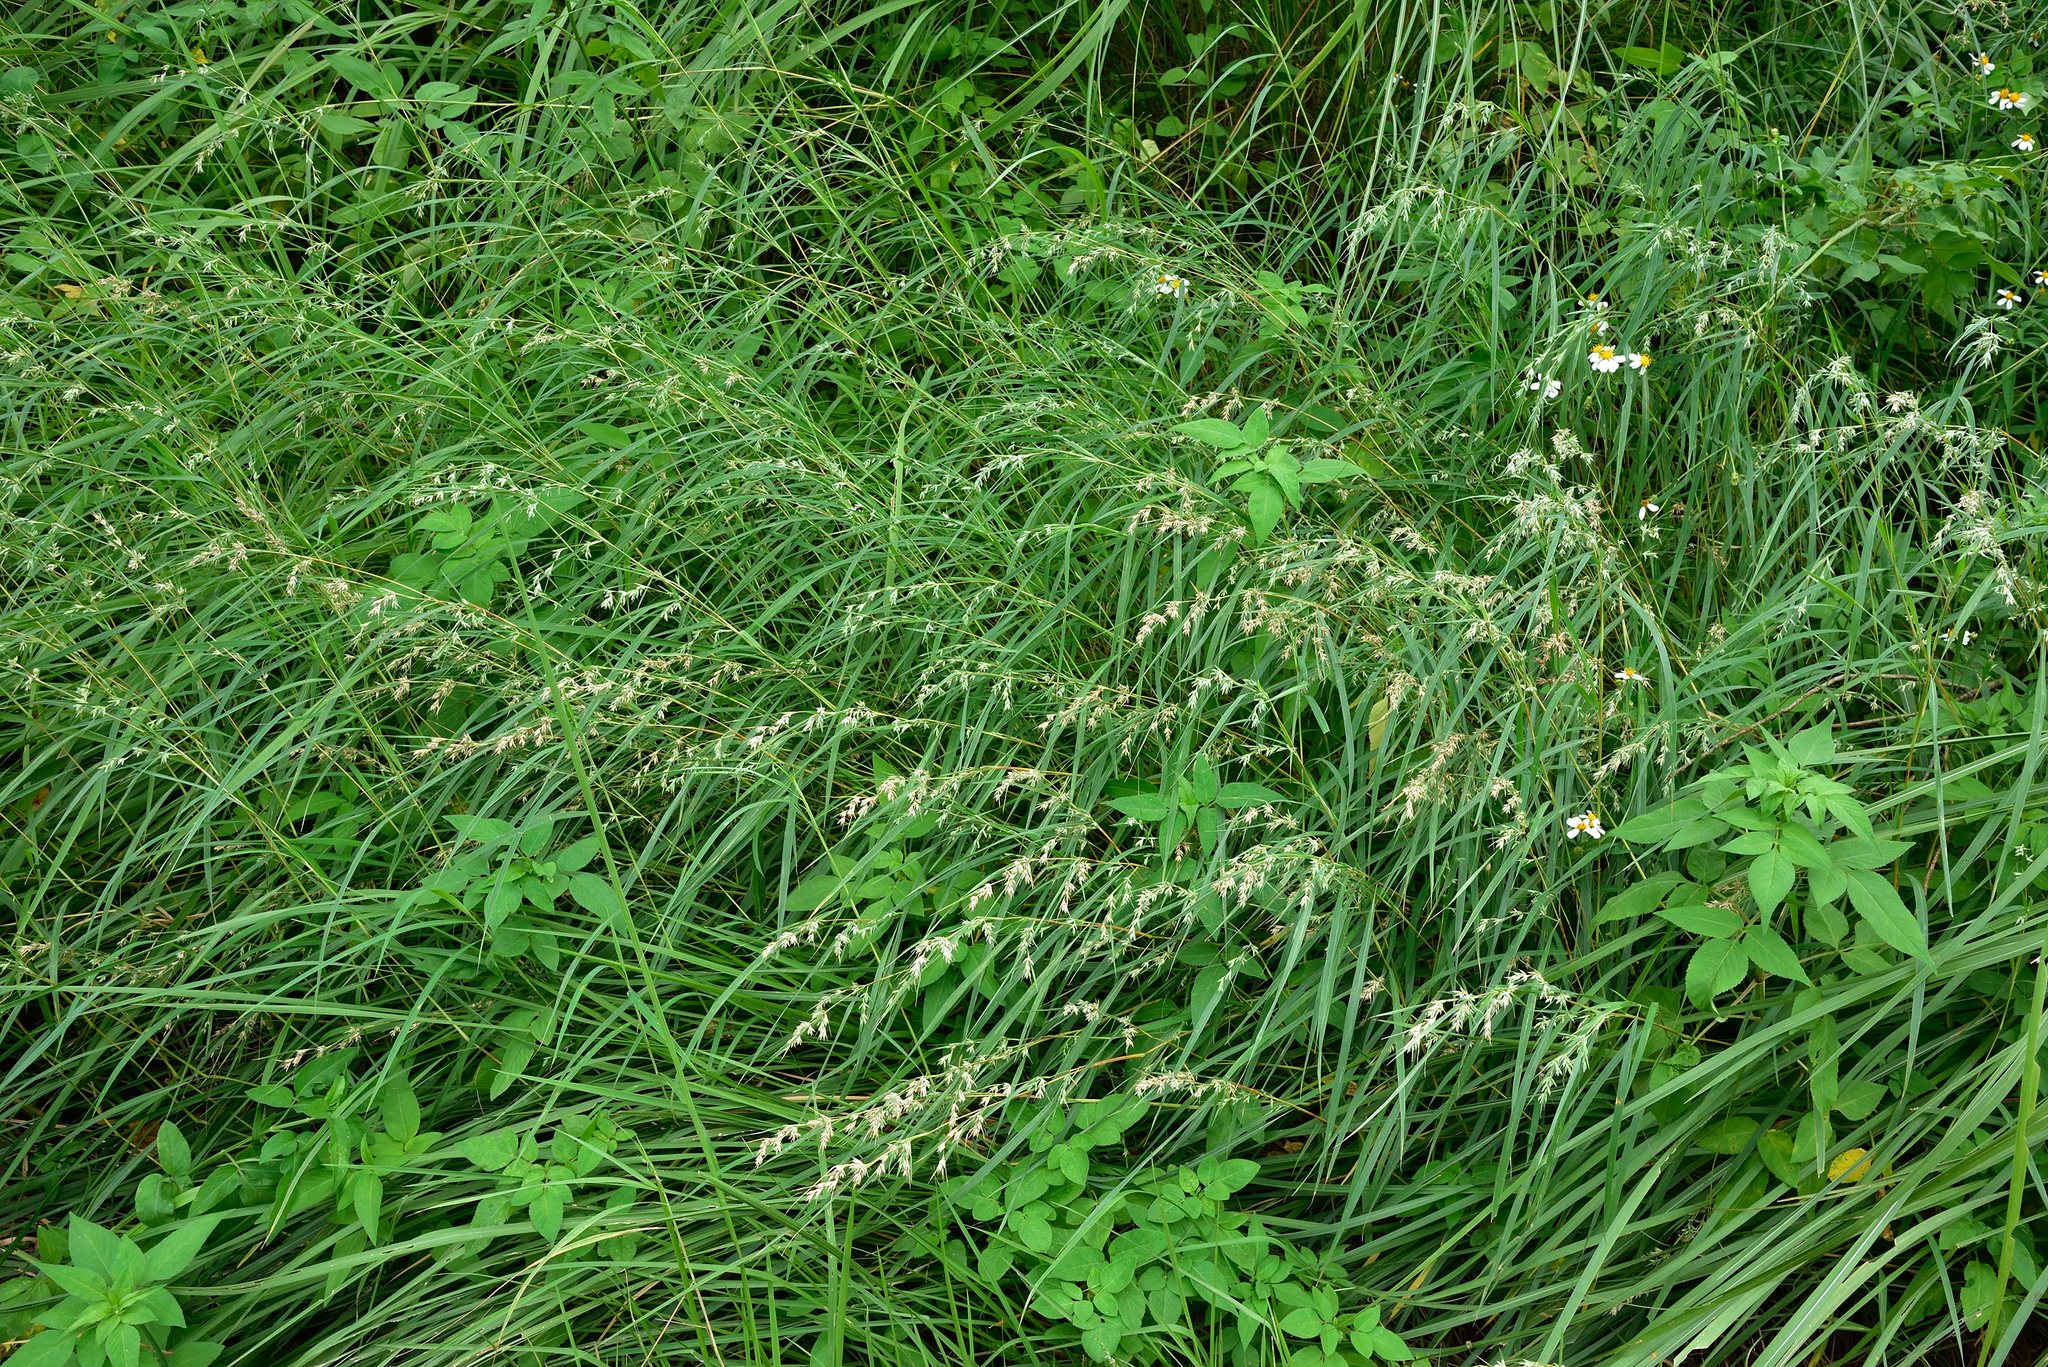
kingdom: Plantae
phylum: Tracheophyta
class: Liliopsida
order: Poales
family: Poaceae
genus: Apluda
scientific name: Apluda mutica
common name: Mauritian grass
